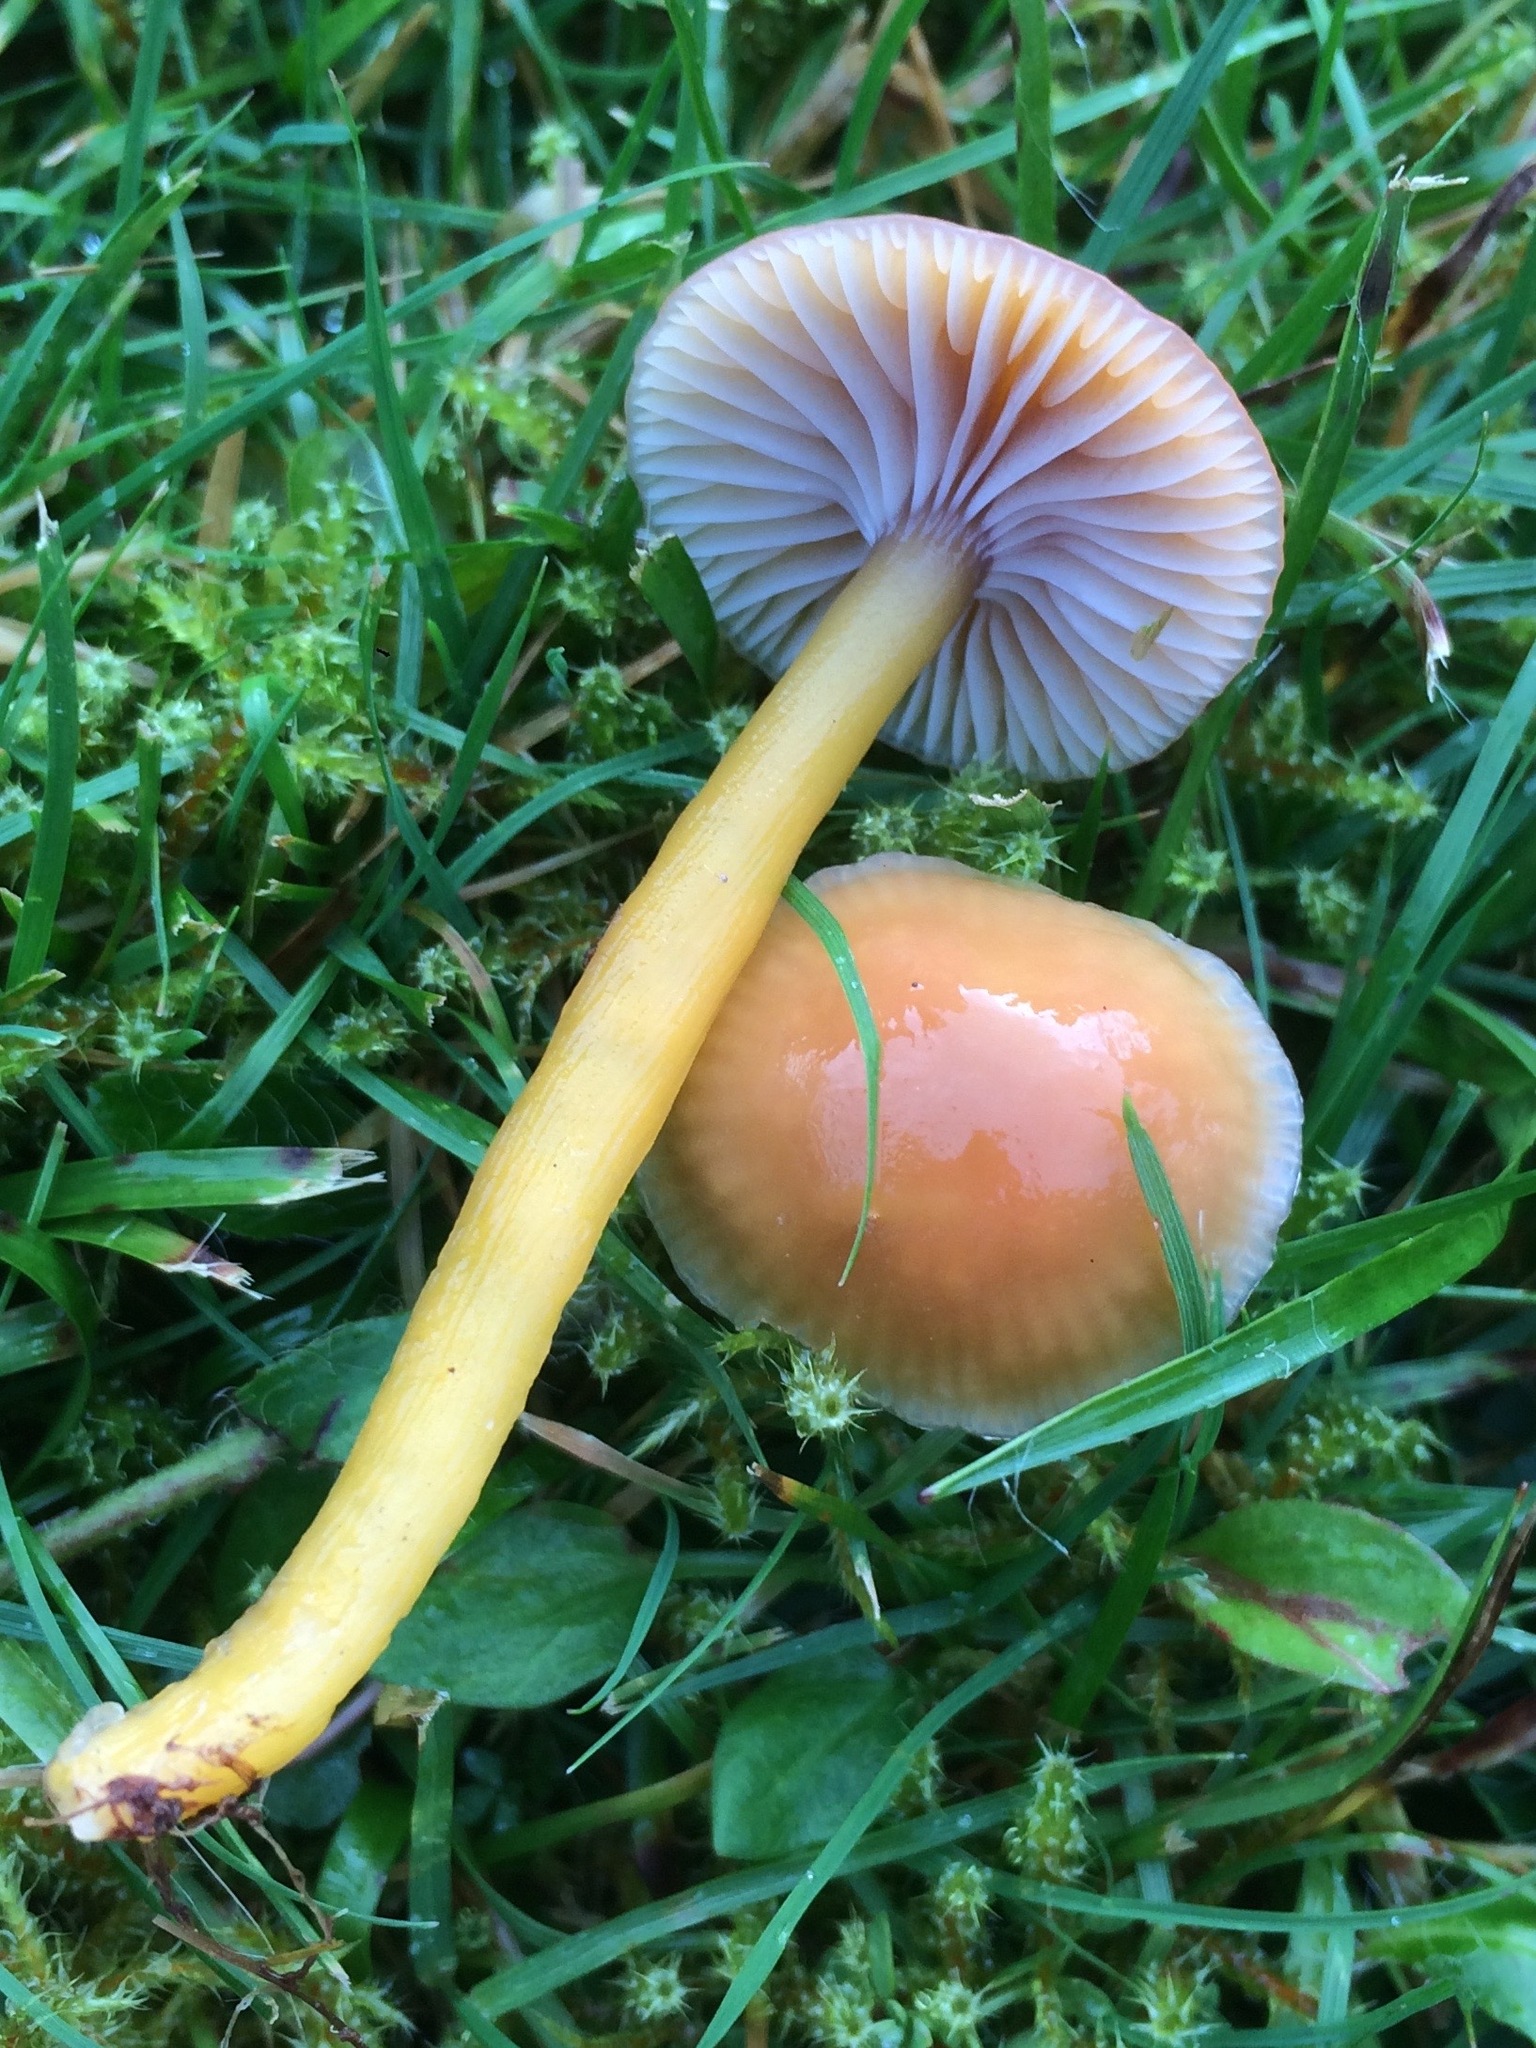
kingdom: Fungi
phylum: Basidiomycota
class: Agaricomycetes
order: Agaricales
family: Hygrophoraceae
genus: Gliophorus
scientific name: Gliophorus laetus
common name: Heath waxcap
